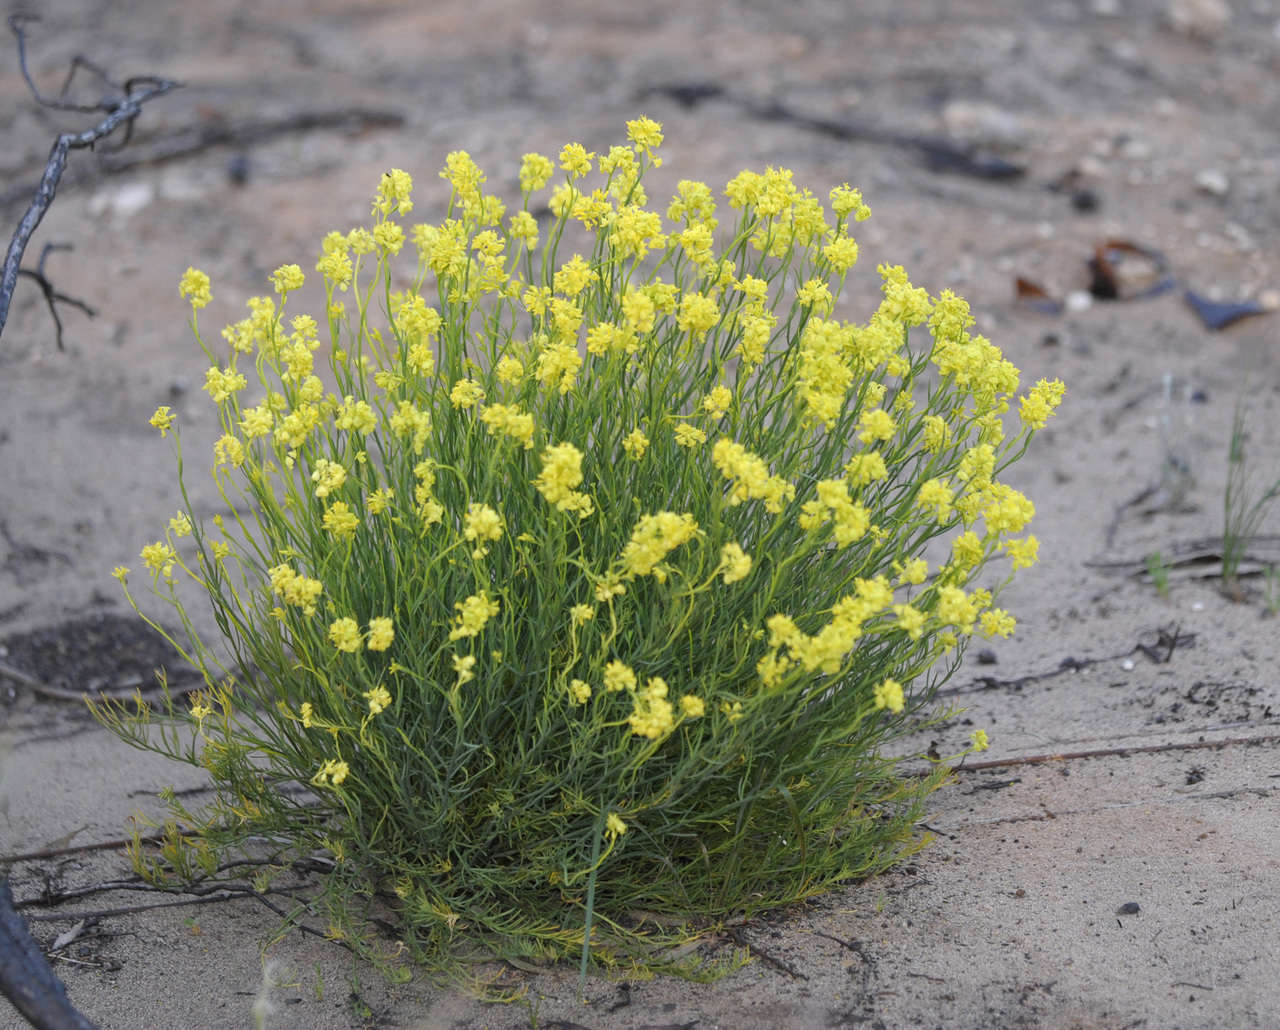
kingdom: Plantae
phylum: Tracheophyta
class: Magnoliopsida
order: Saxifragales
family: Haloragaceae
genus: Glischrocaryon
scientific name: Glischrocaryon behrii
